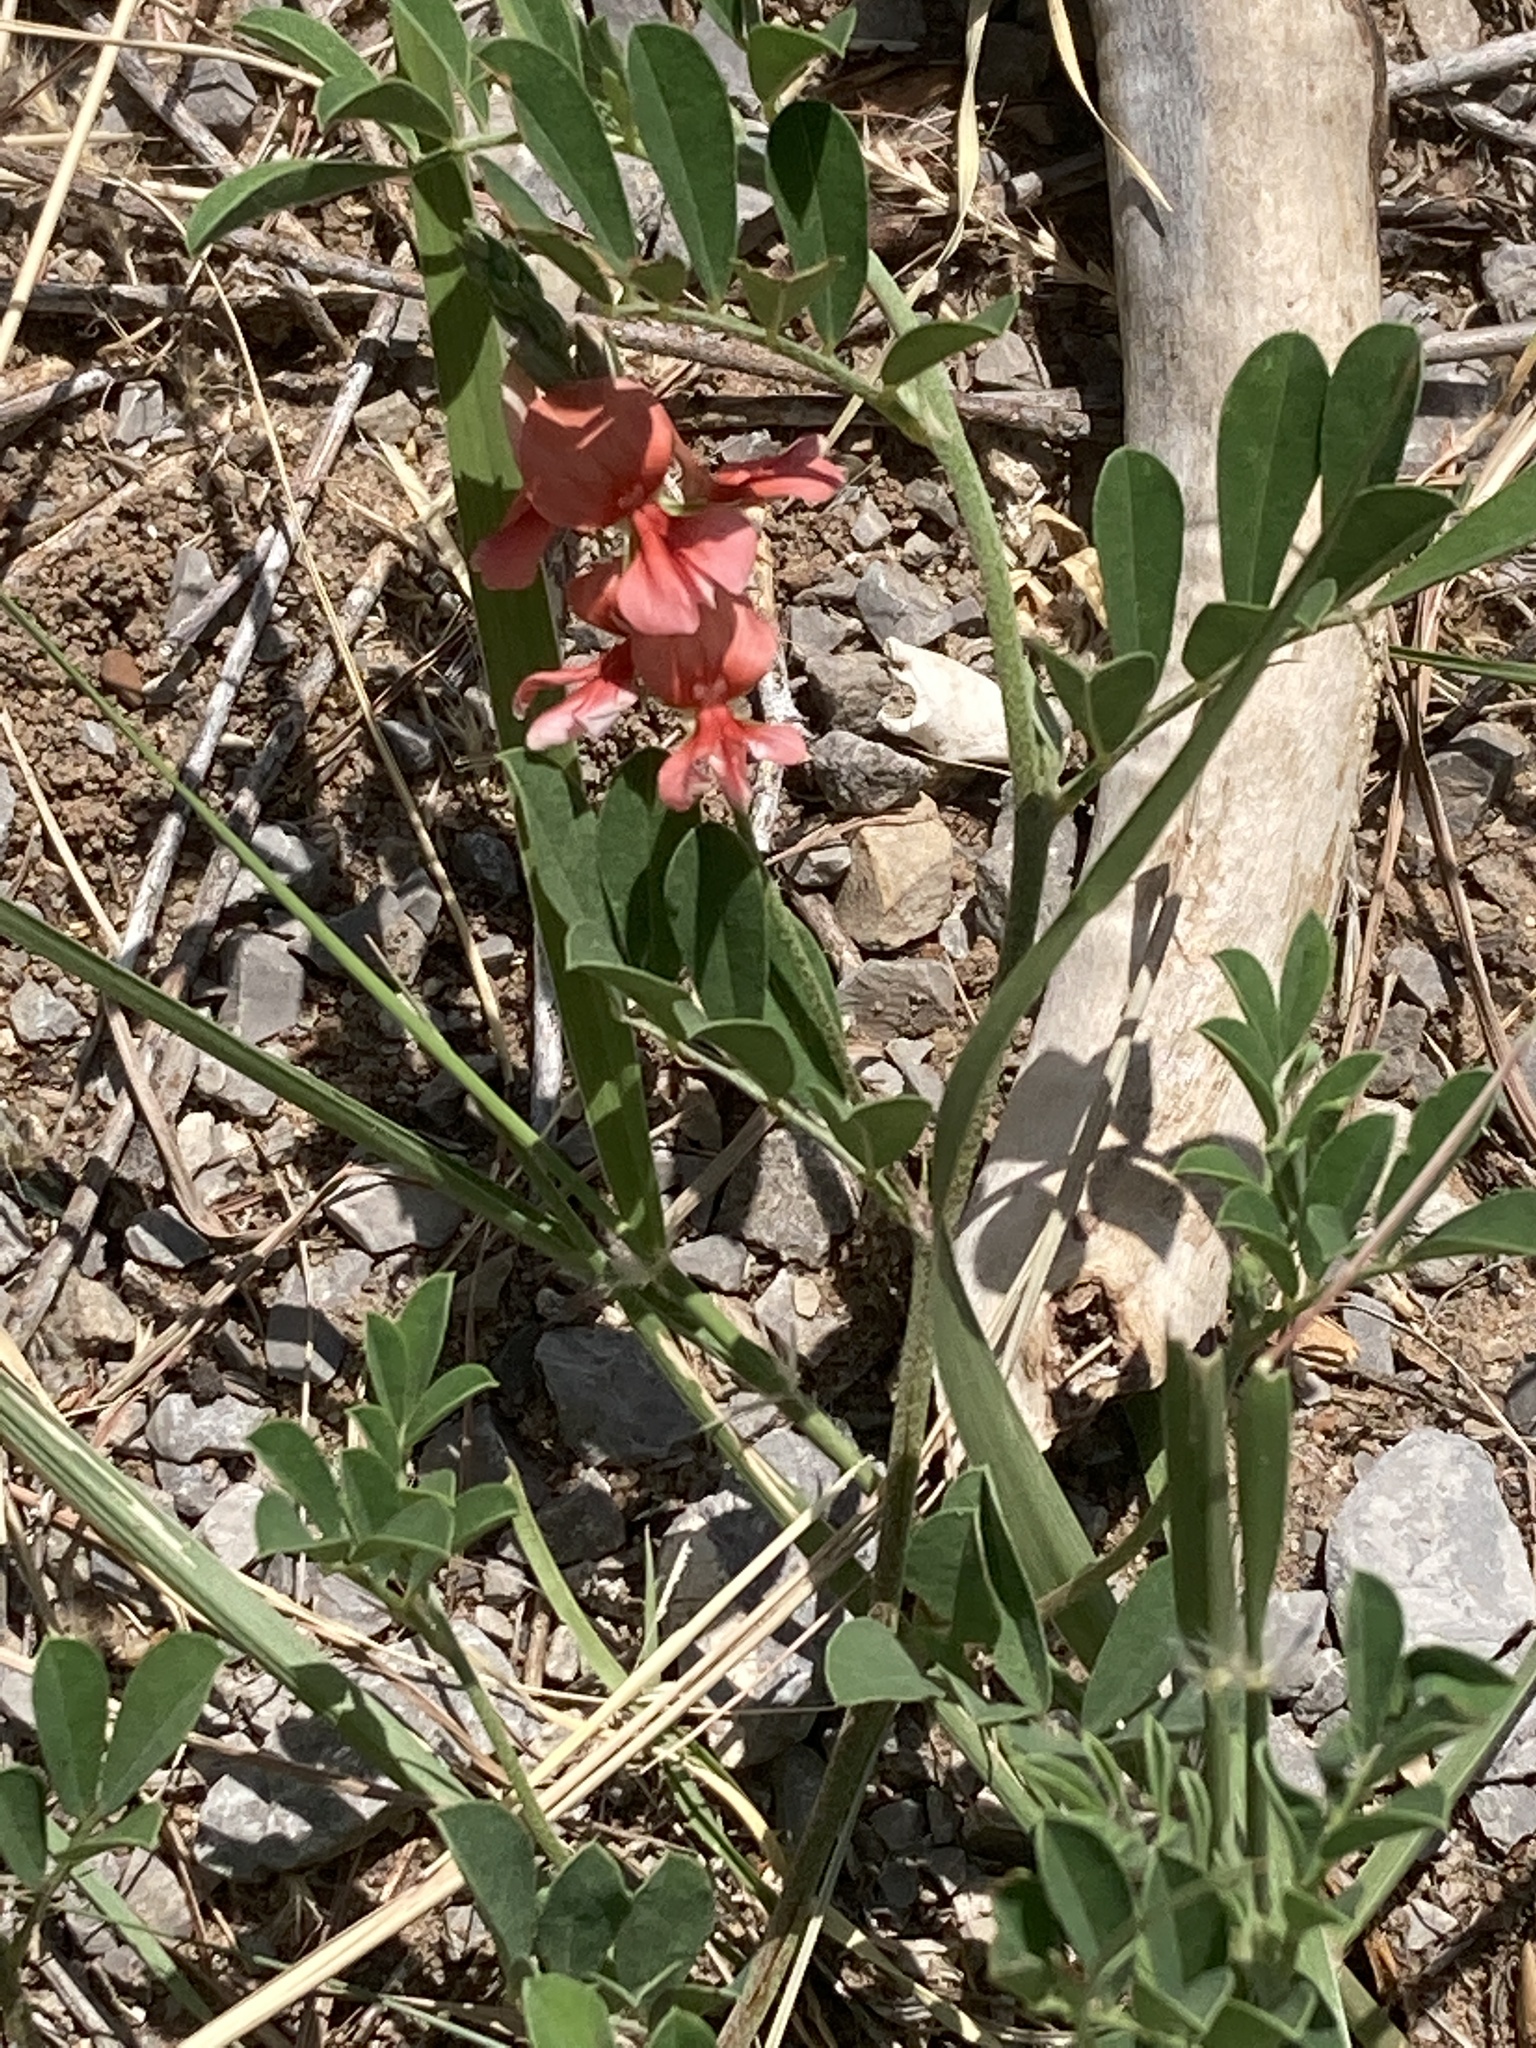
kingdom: Plantae
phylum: Tracheophyta
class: Magnoliopsida
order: Fabales
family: Fabaceae
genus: Indigofera
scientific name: Indigofera miniata
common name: Coast indigo
